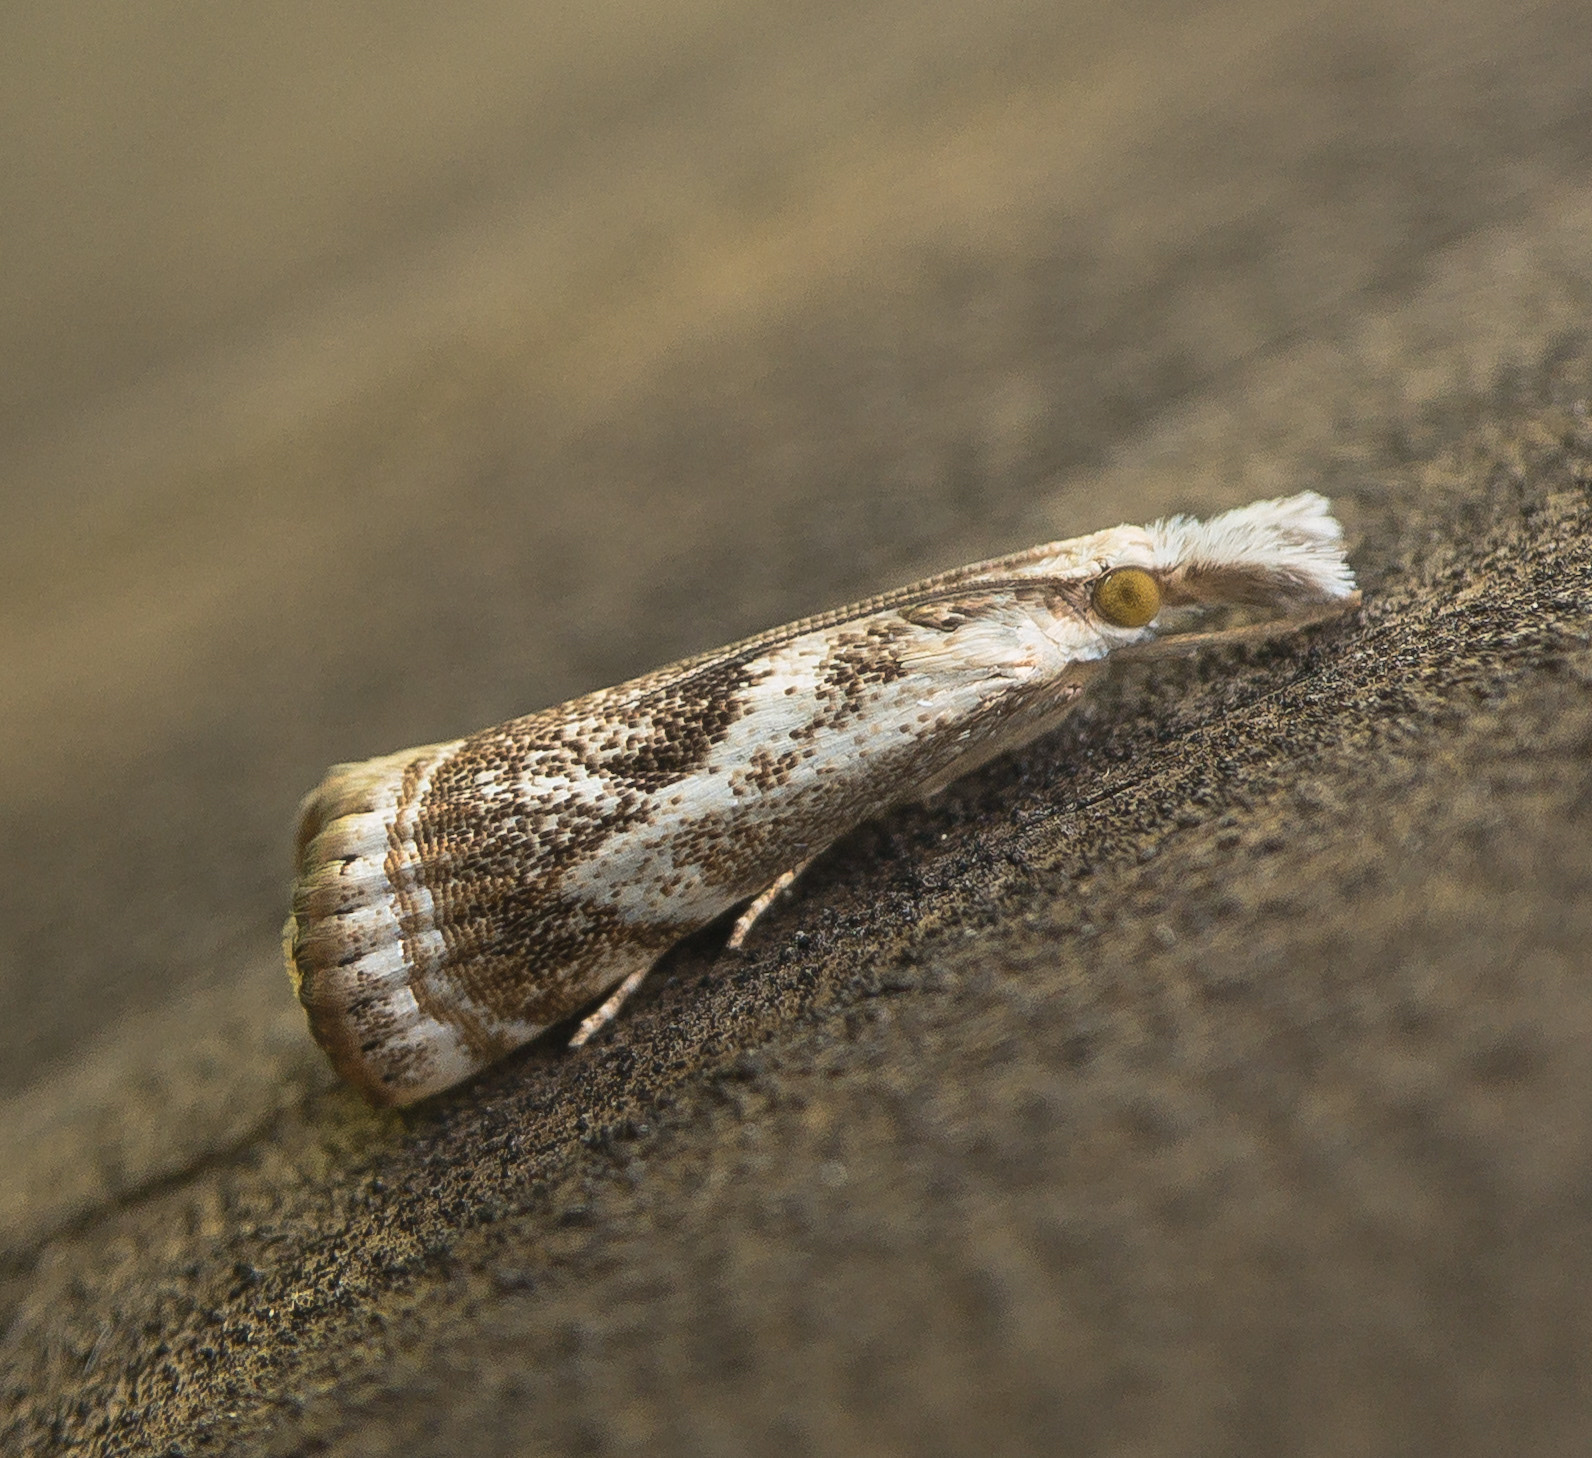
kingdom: Animalia
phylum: Arthropoda
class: Insecta
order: Lepidoptera
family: Crambidae
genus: Microcrambus
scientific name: Microcrambus elegans
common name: Elegant grass-veneer
